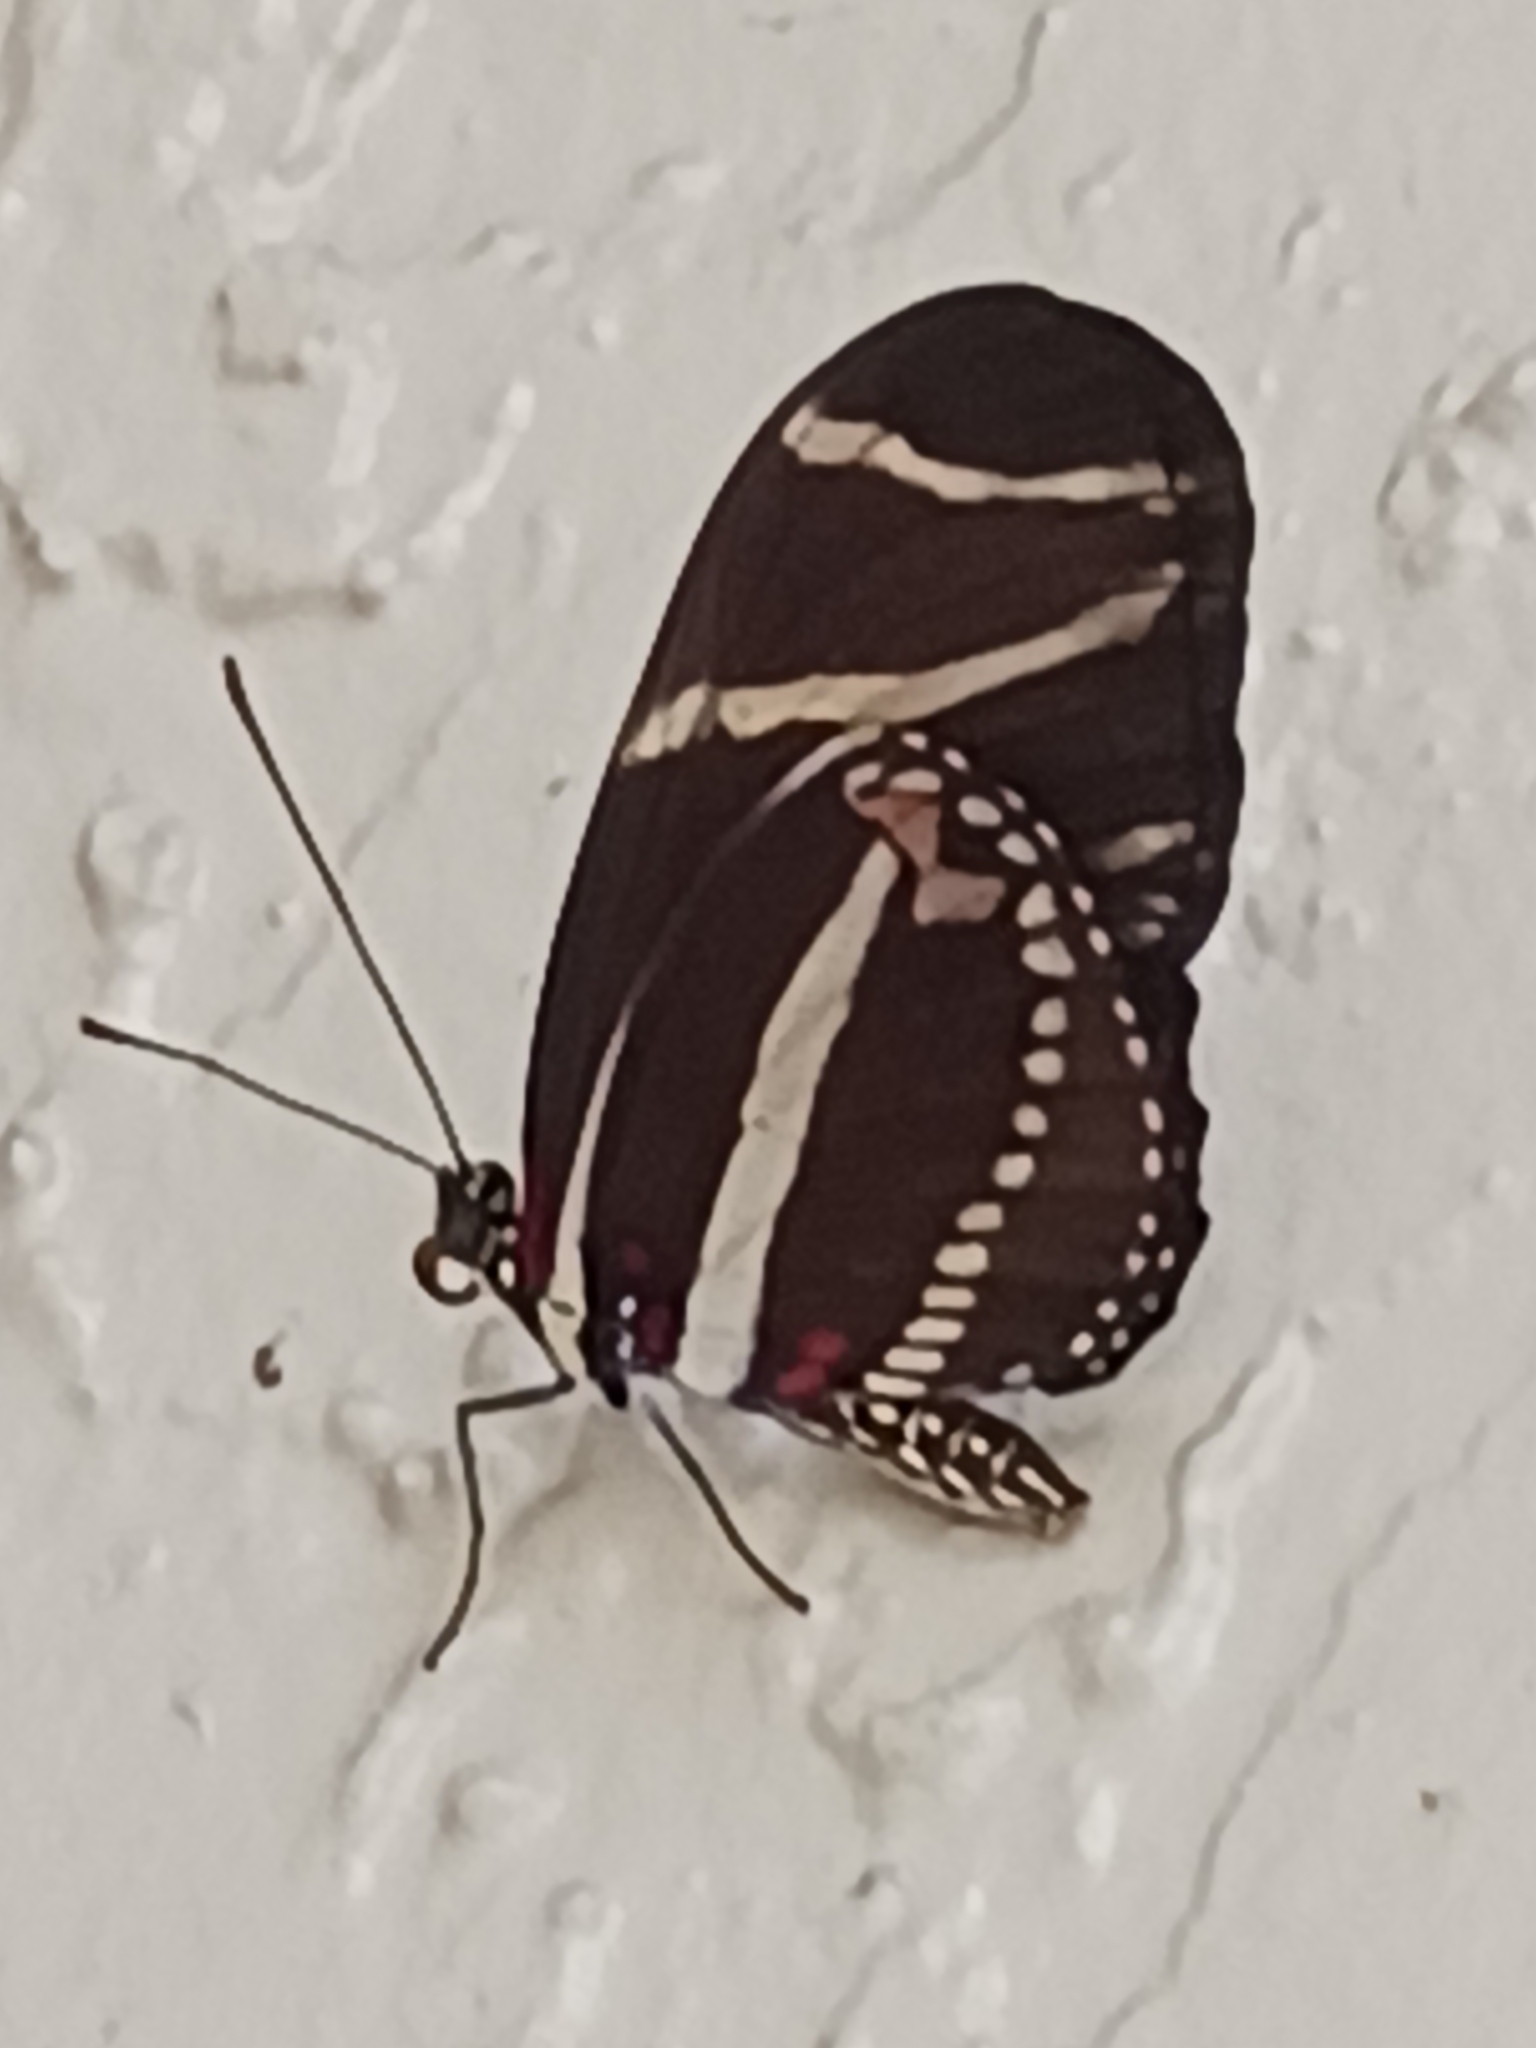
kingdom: Animalia
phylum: Arthropoda
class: Insecta
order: Lepidoptera
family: Nymphalidae
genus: Heliconius
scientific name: Heliconius charithonia
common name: Zebra long wing
